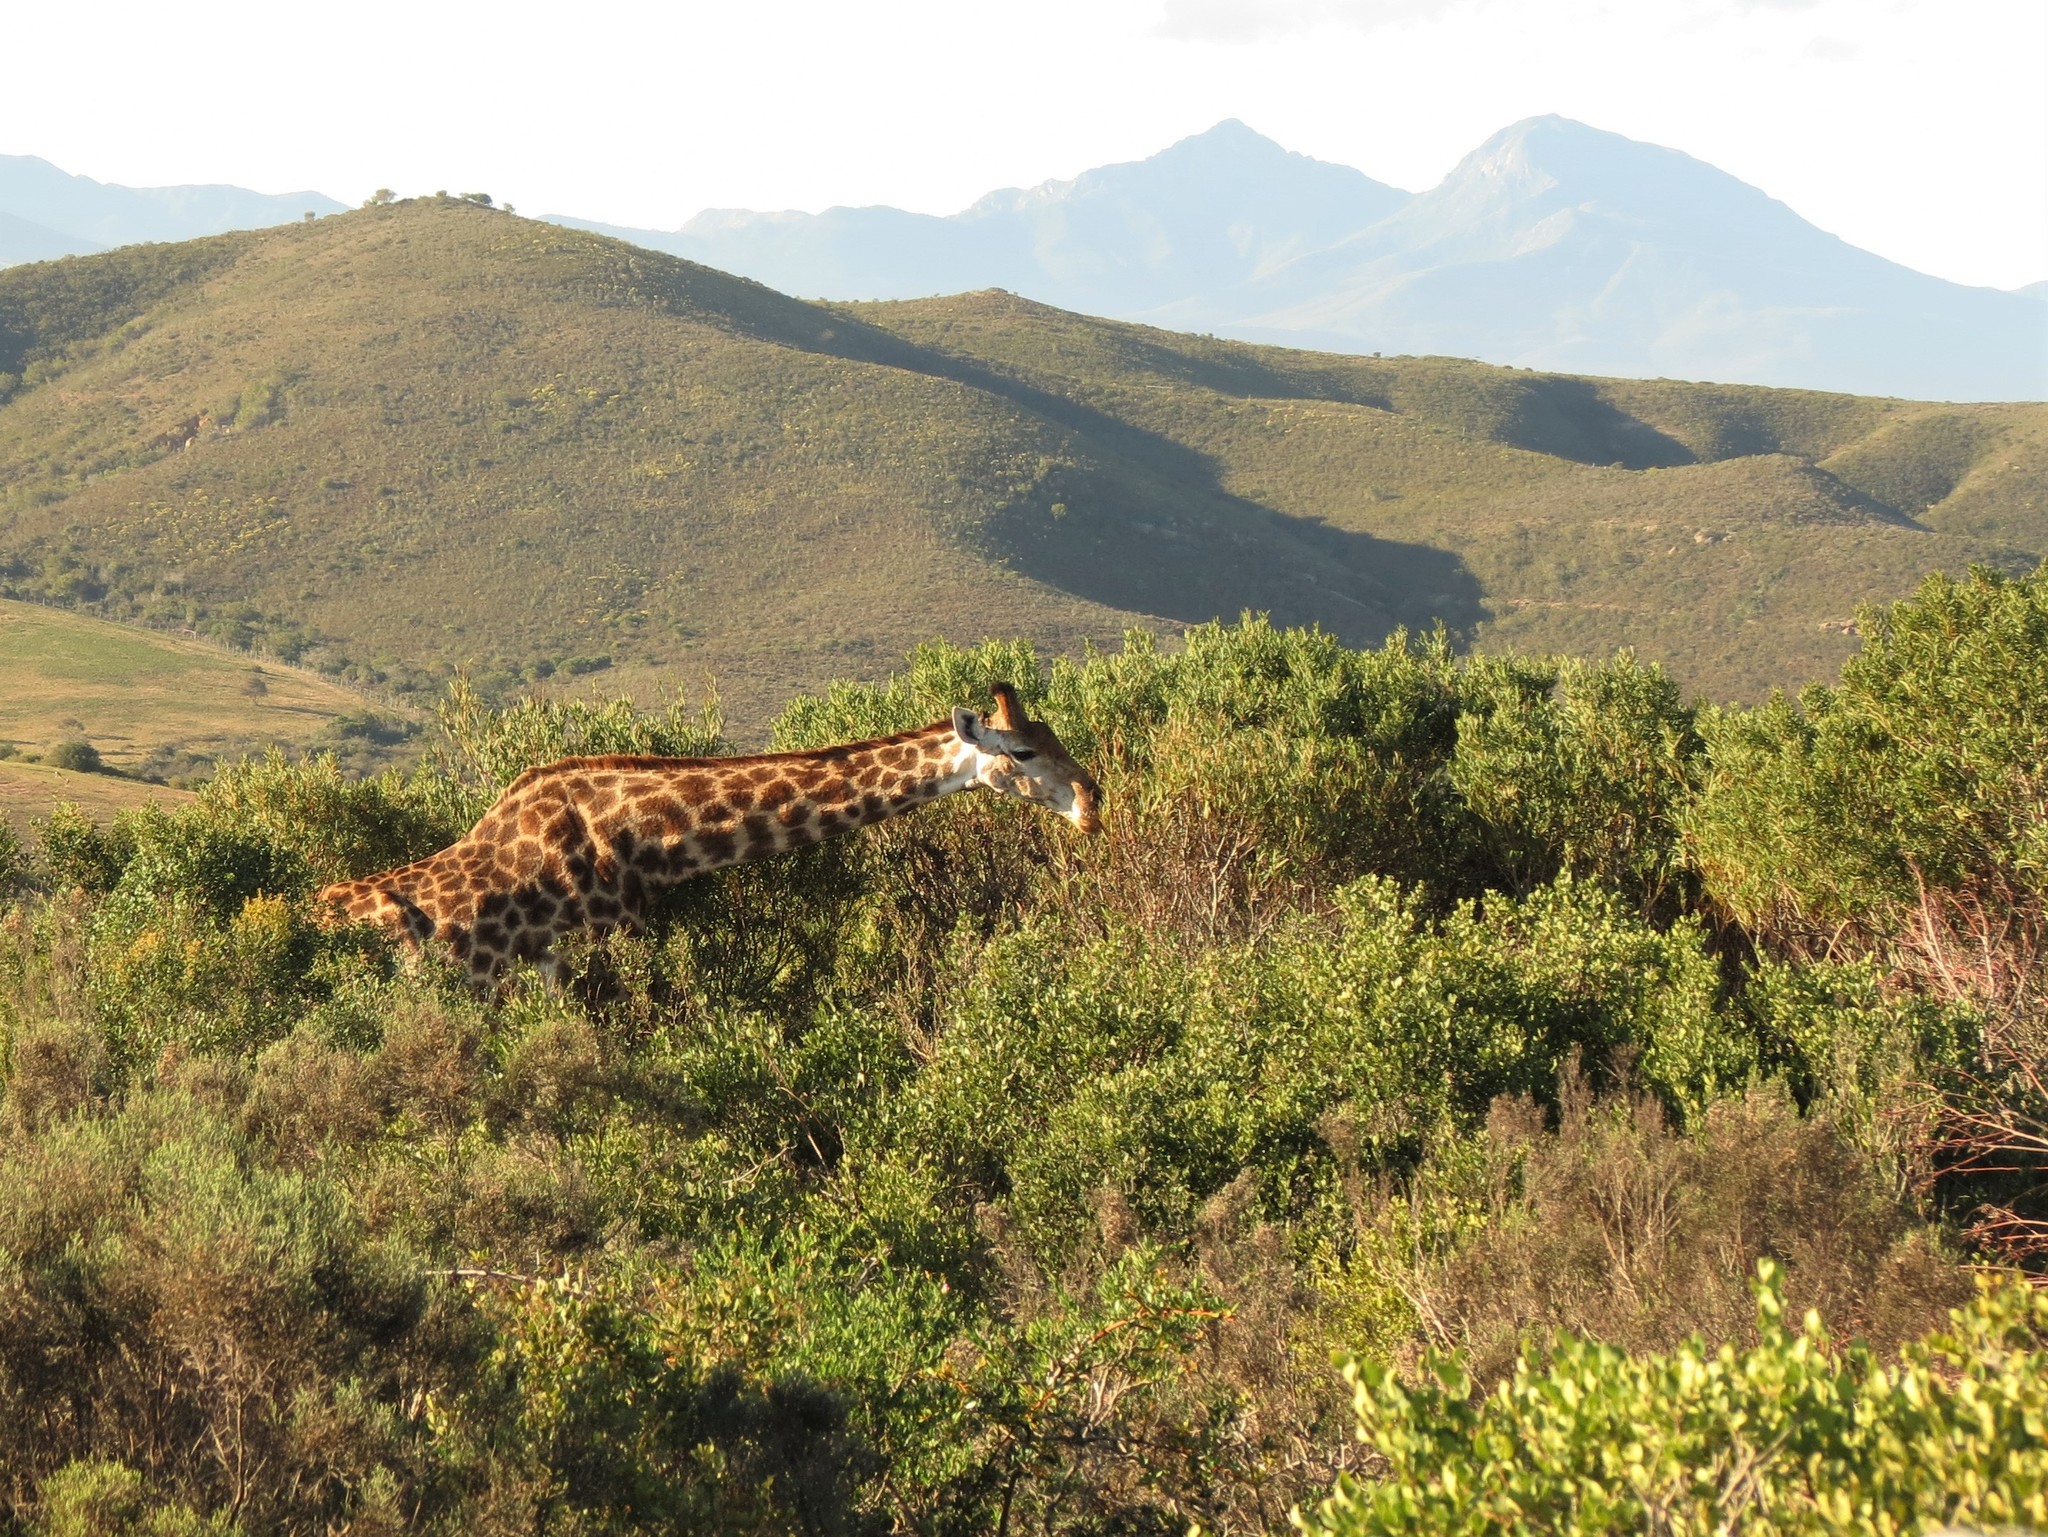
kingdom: Animalia
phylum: Chordata
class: Mammalia
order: Artiodactyla
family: Giraffidae
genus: Giraffa
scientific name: Giraffa giraffa
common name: Southern giraffe
